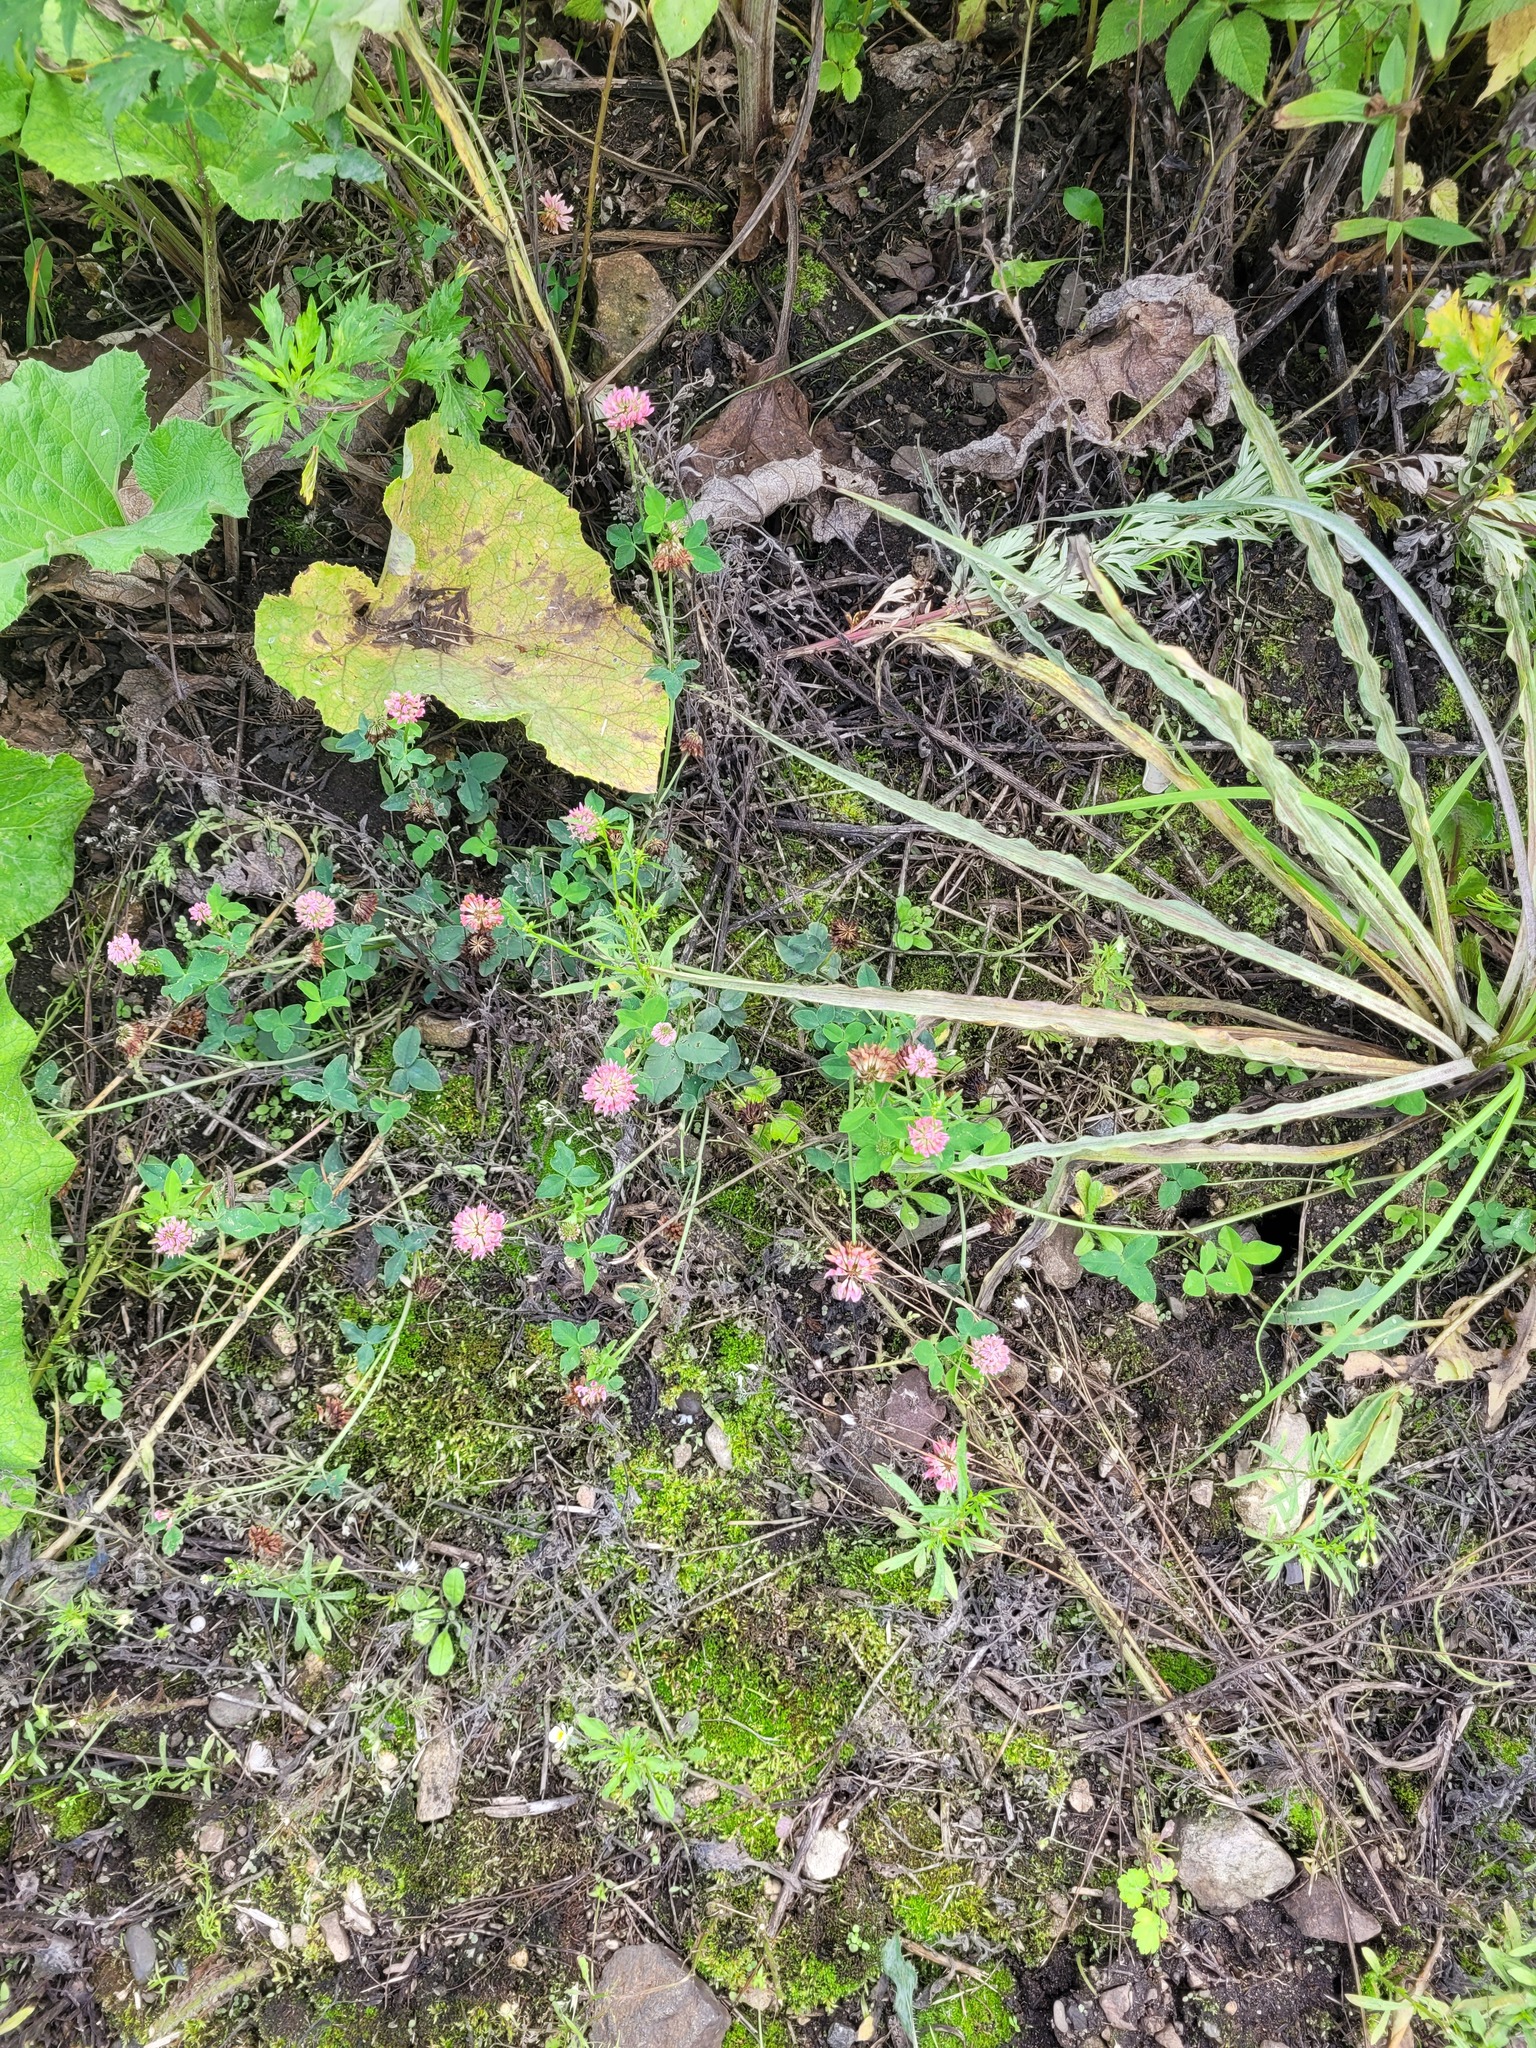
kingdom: Plantae
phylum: Tracheophyta
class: Magnoliopsida
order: Fabales
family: Fabaceae
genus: Trifolium
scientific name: Trifolium hybridum
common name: Alsike clover
